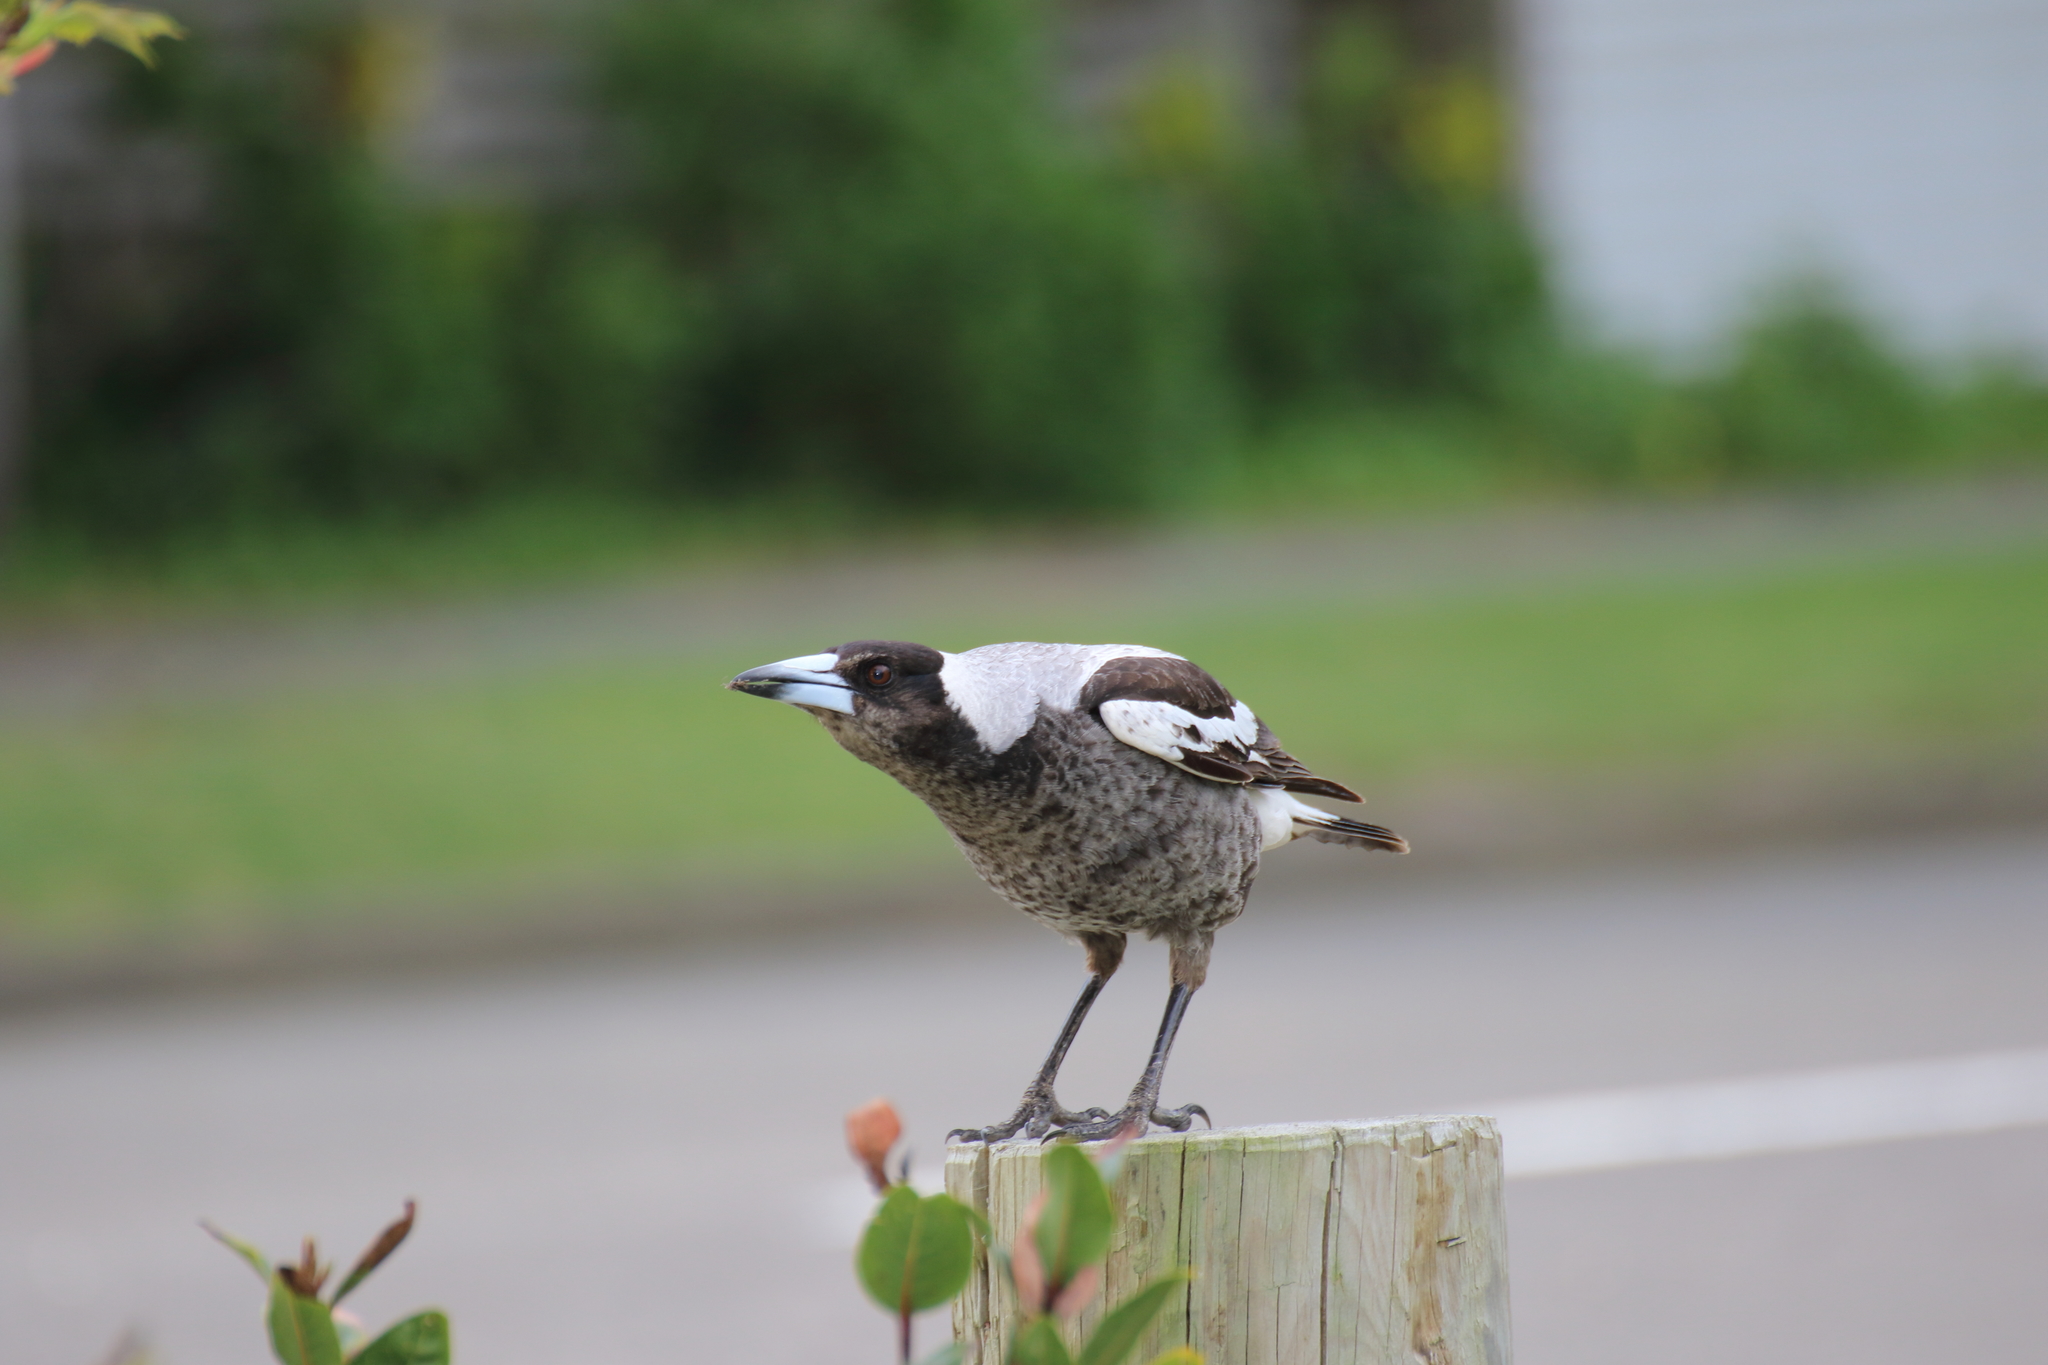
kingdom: Animalia
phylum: Chordata
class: Aves
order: Passeriformes
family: Cracticidae
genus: Gymnorhina
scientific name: Gymnorhina tibicen
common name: Australian magpie
